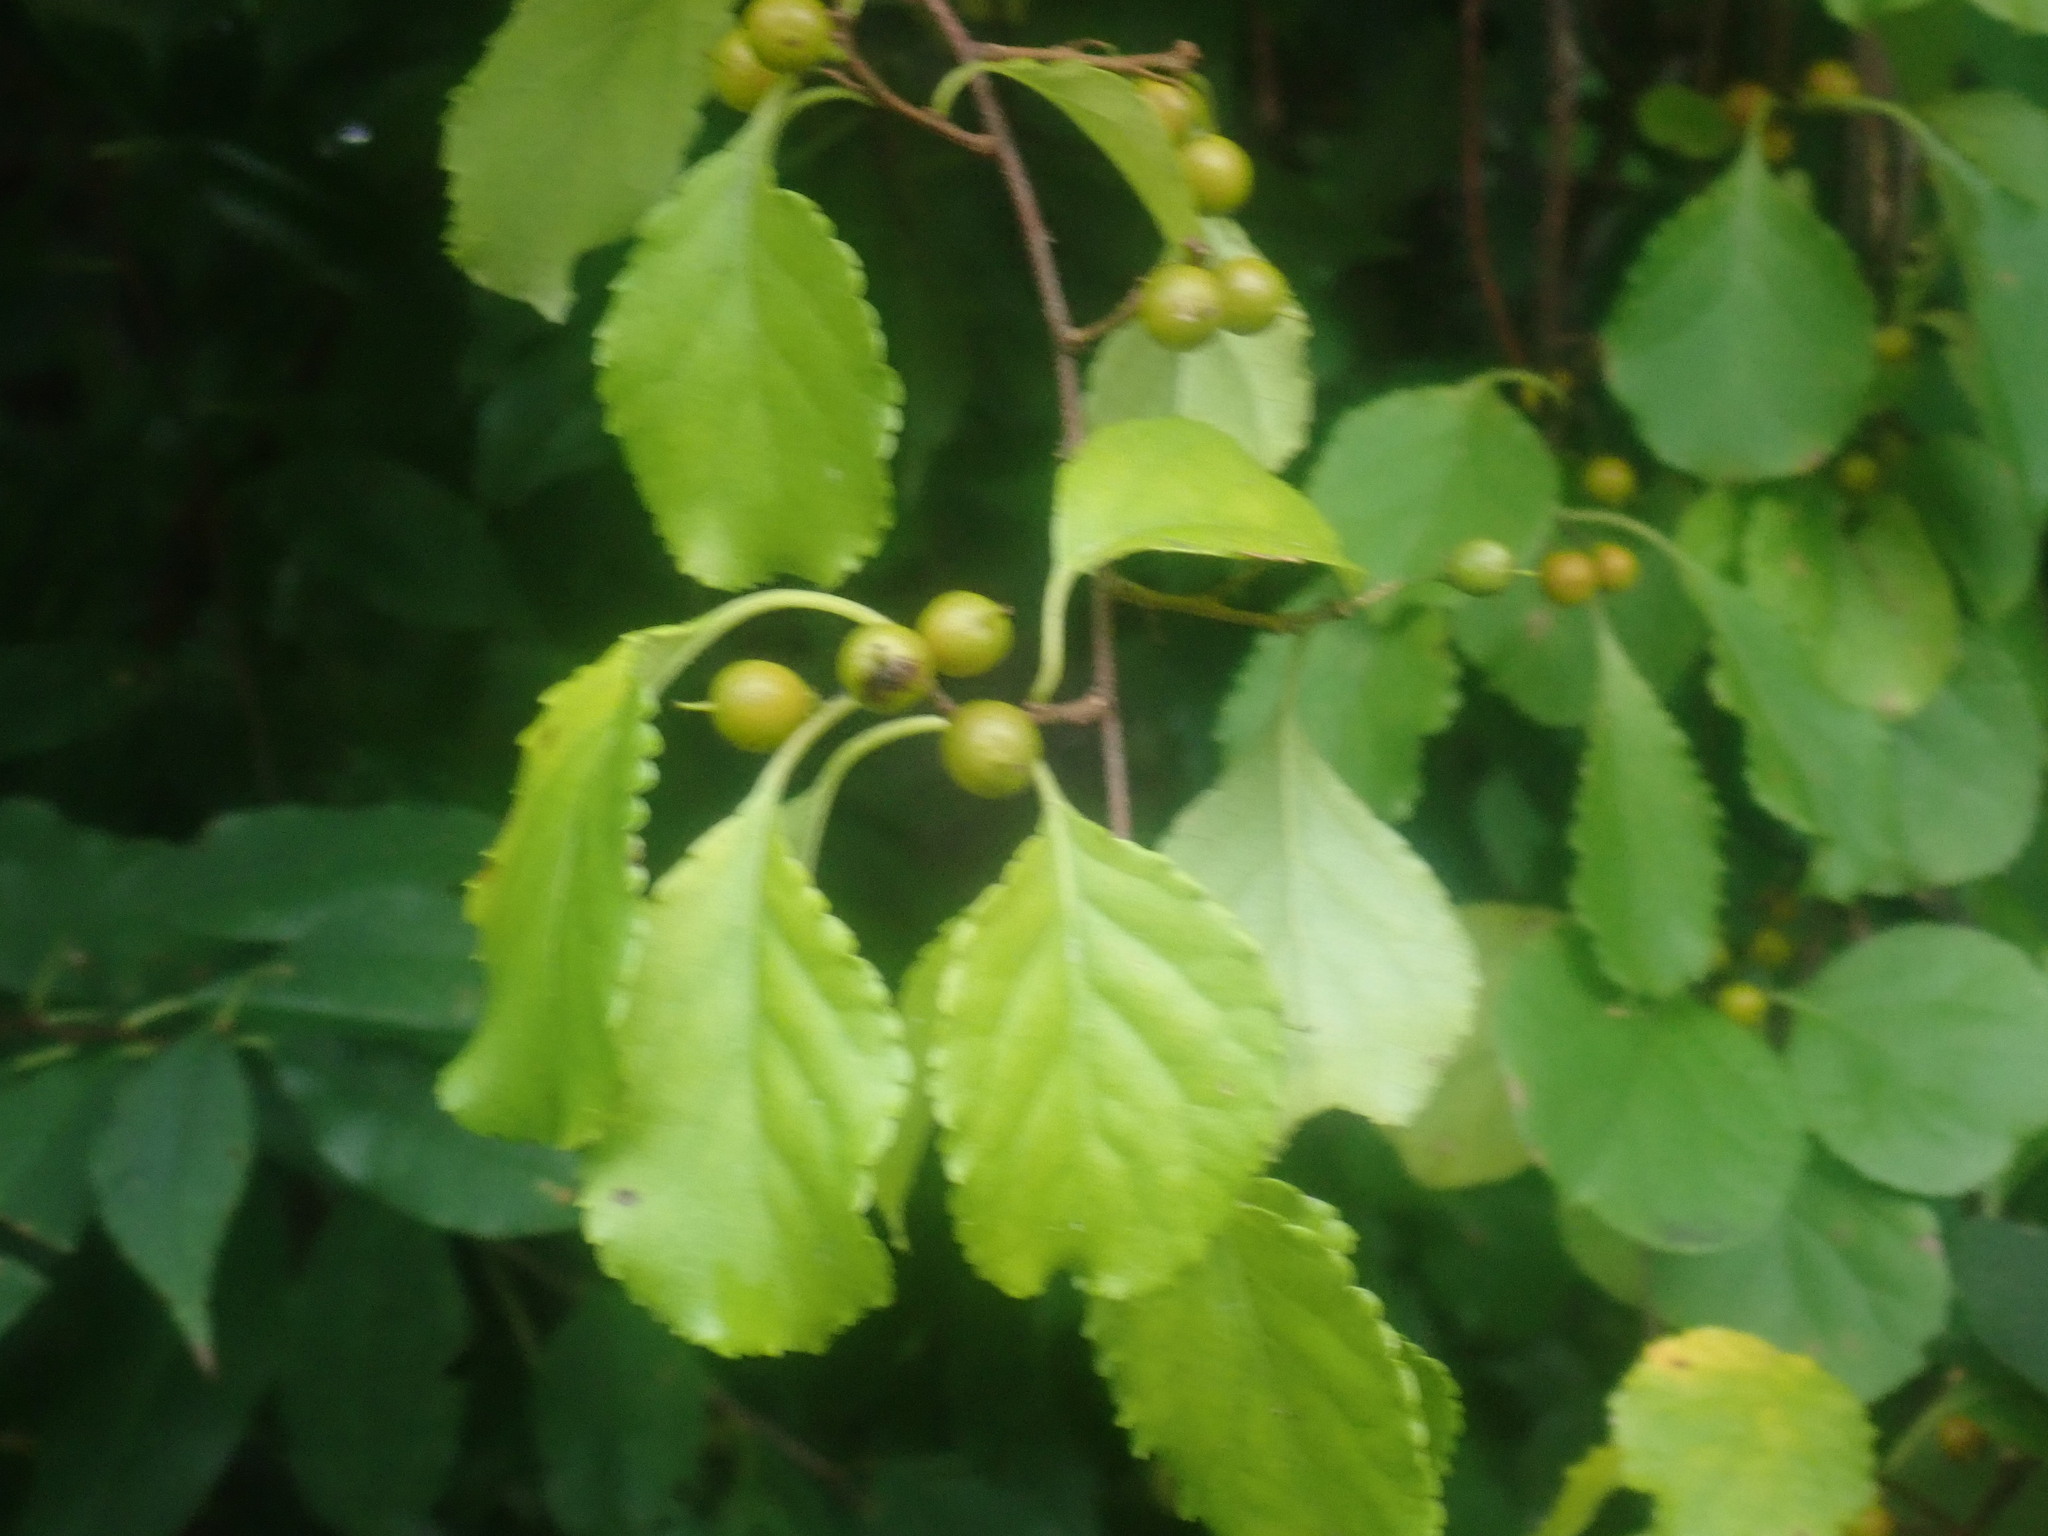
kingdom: Plantae
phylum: Tracheophyta
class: Magnoliopsida
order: Celastrales
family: Celastraceae
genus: Celastrus
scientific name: Celastrus orbiculatus
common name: Oriental bittersweet
